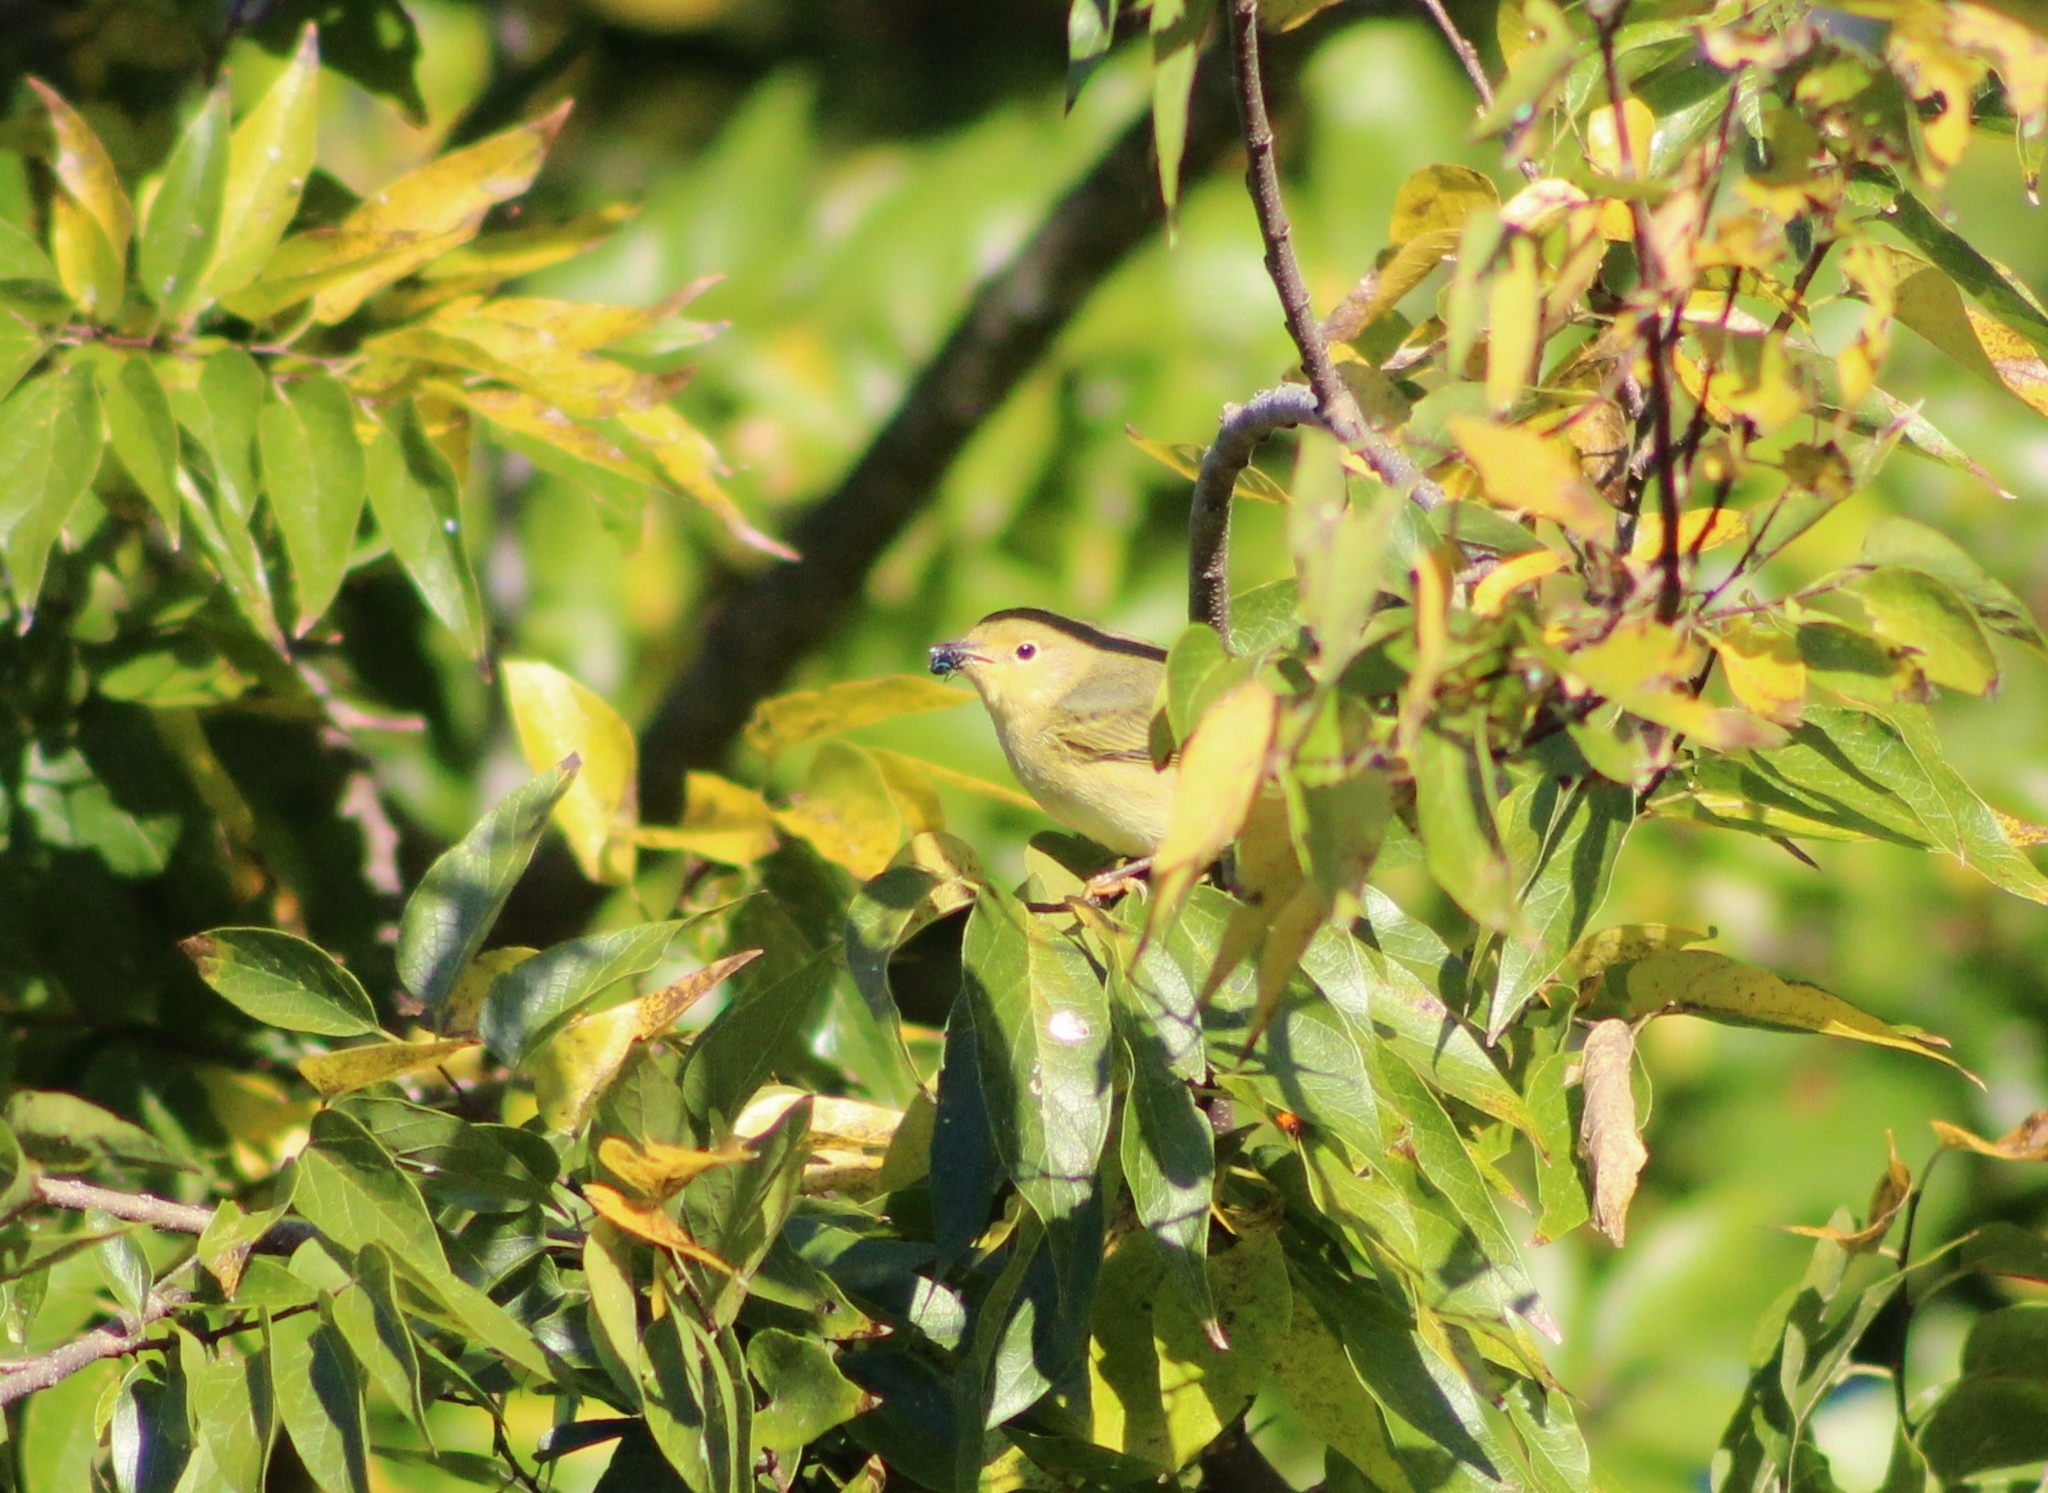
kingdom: Animalia
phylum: Chordata
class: Aves
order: Passeriformes
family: Parulidae
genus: Setophaga
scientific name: Setophaga petechia
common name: Yellow warbler
